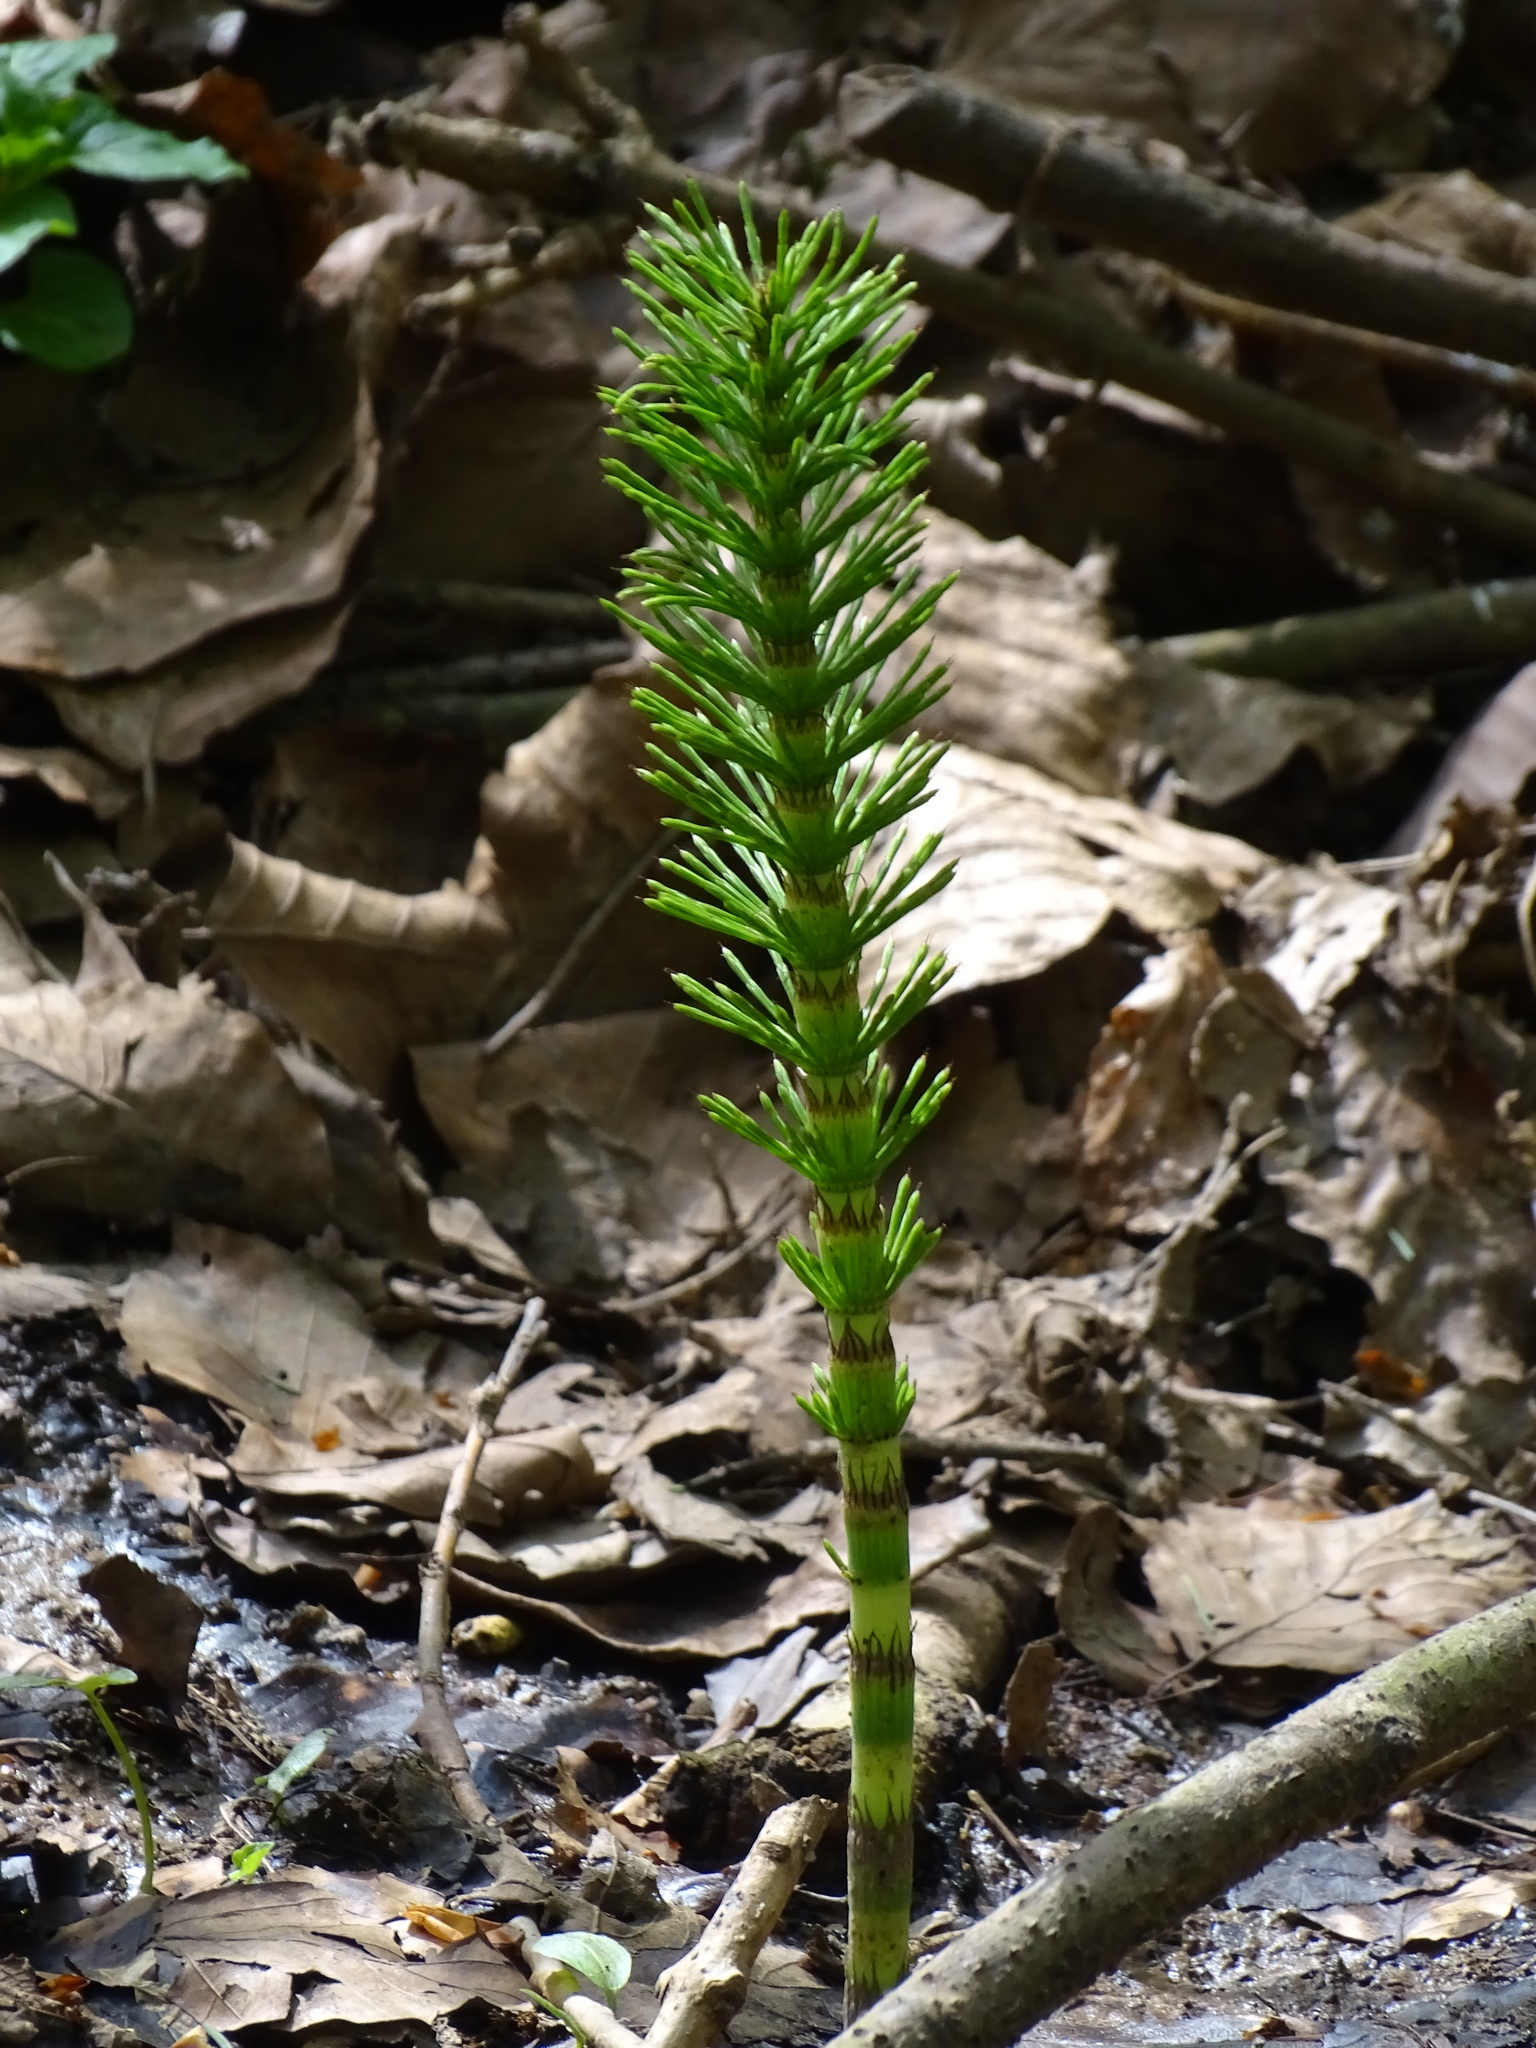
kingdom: Plantae
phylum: Tracheophyta
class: Polypodiopsida
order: Equisetales
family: Equisetaceae
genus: Equisetum
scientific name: Equisetum telmateia
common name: Great horsetail
